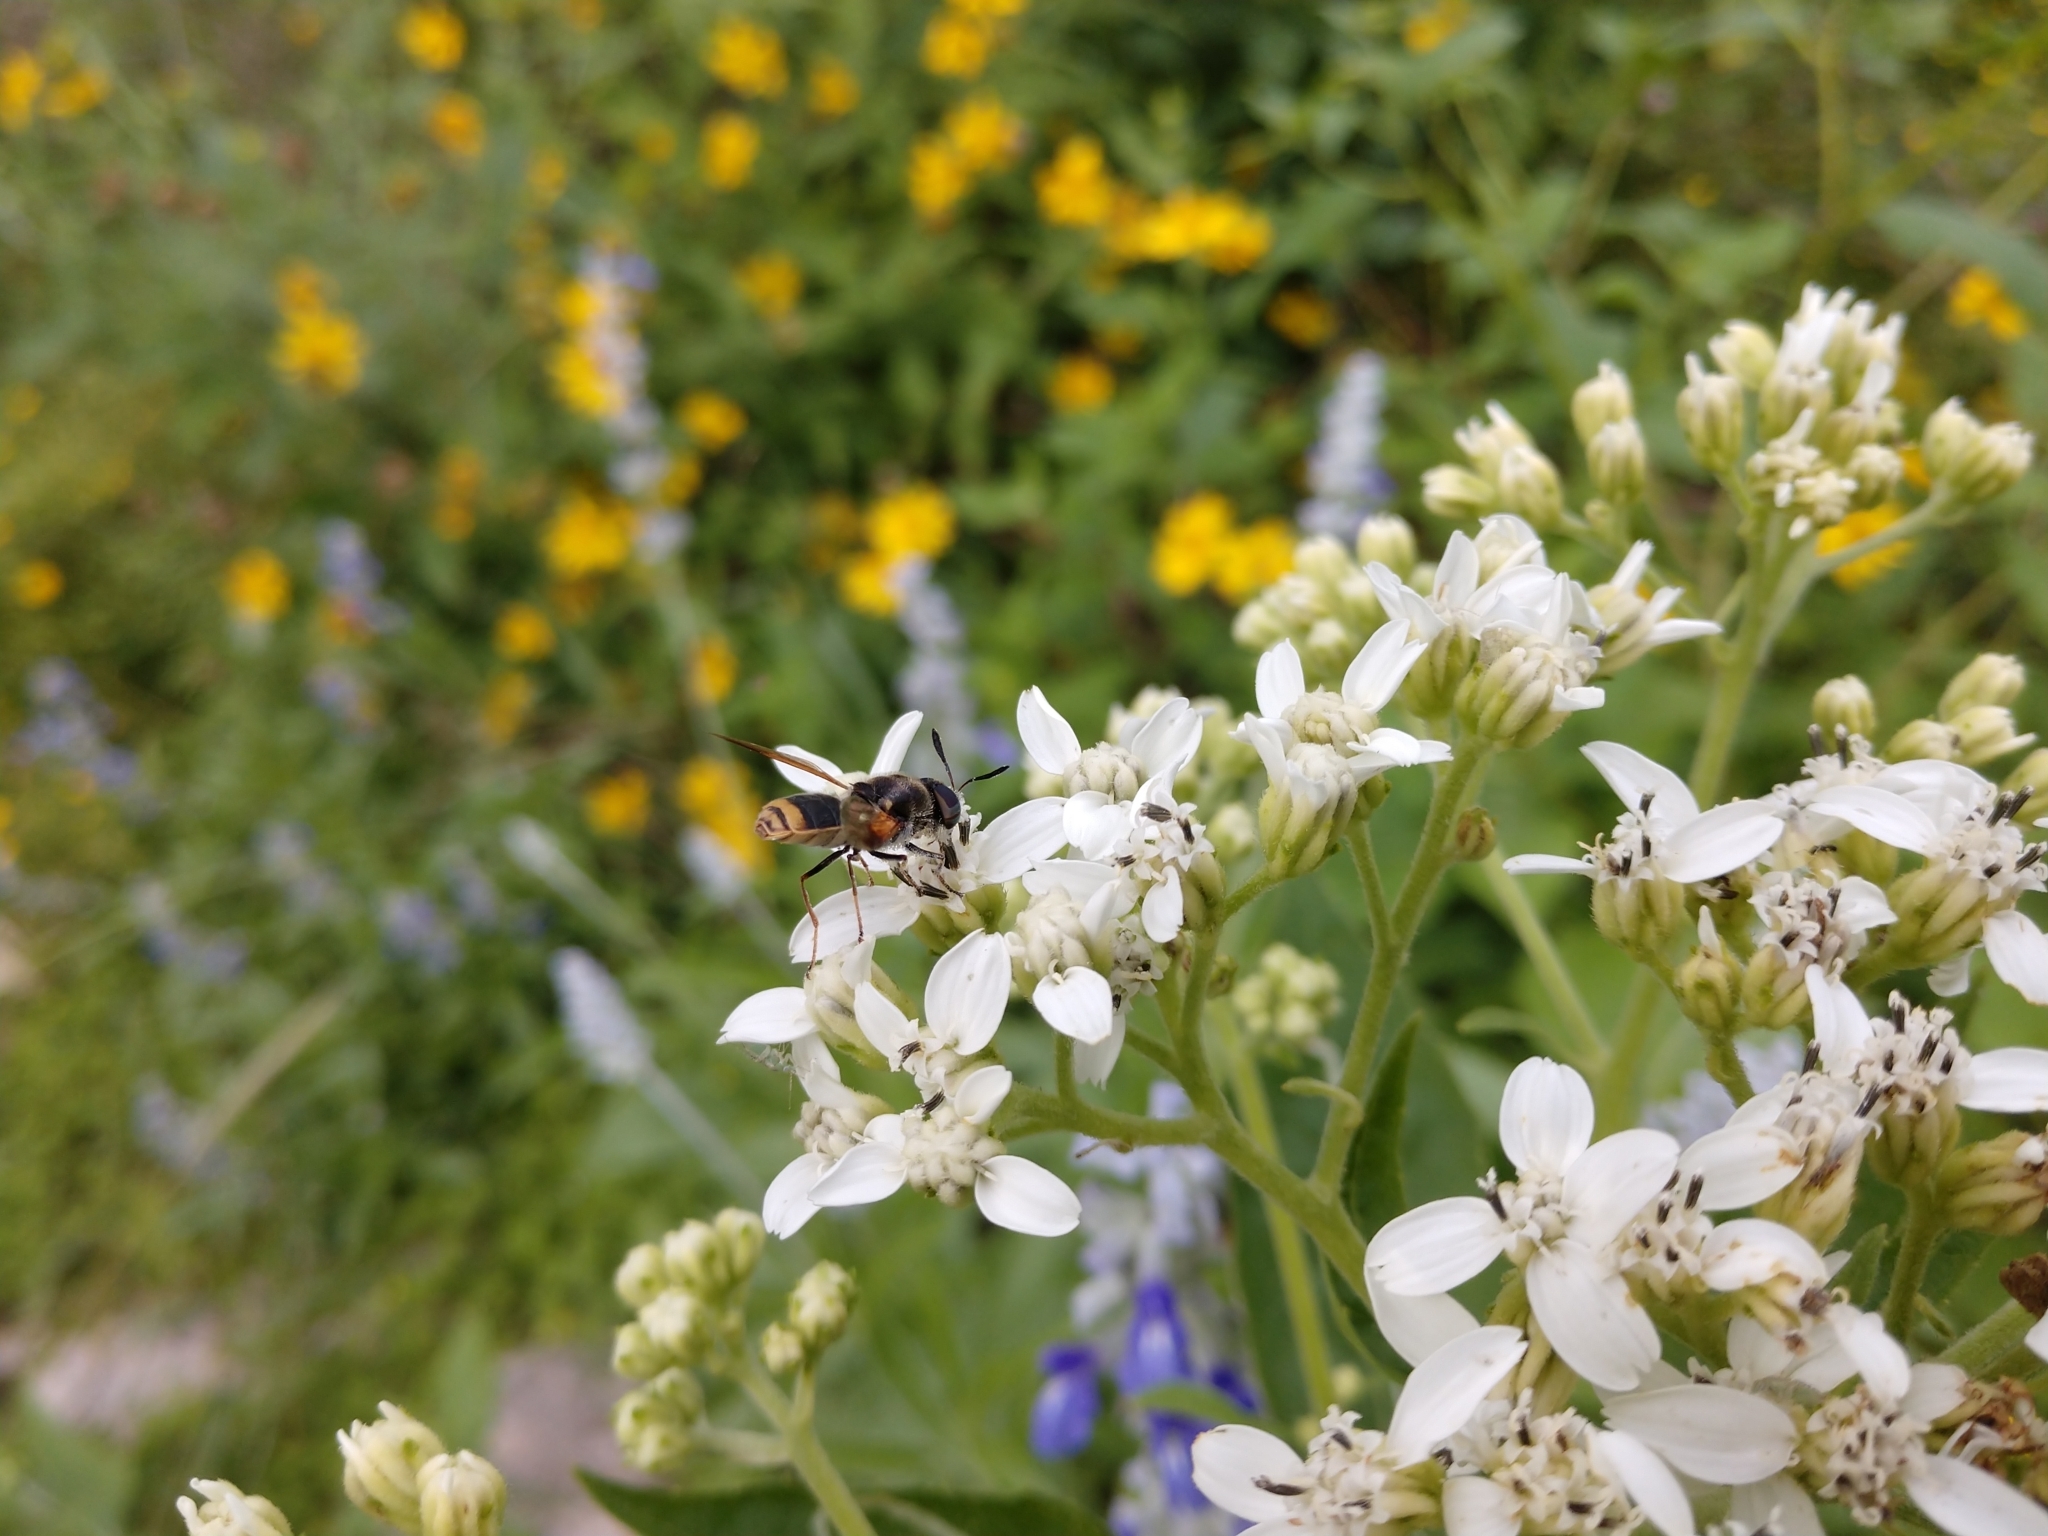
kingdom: Animalia
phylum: Arthropoda
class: Insecta
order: Diptera
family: Stratiomyidae
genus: Hoplitimyia
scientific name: Hoplitimyia mutabilis
